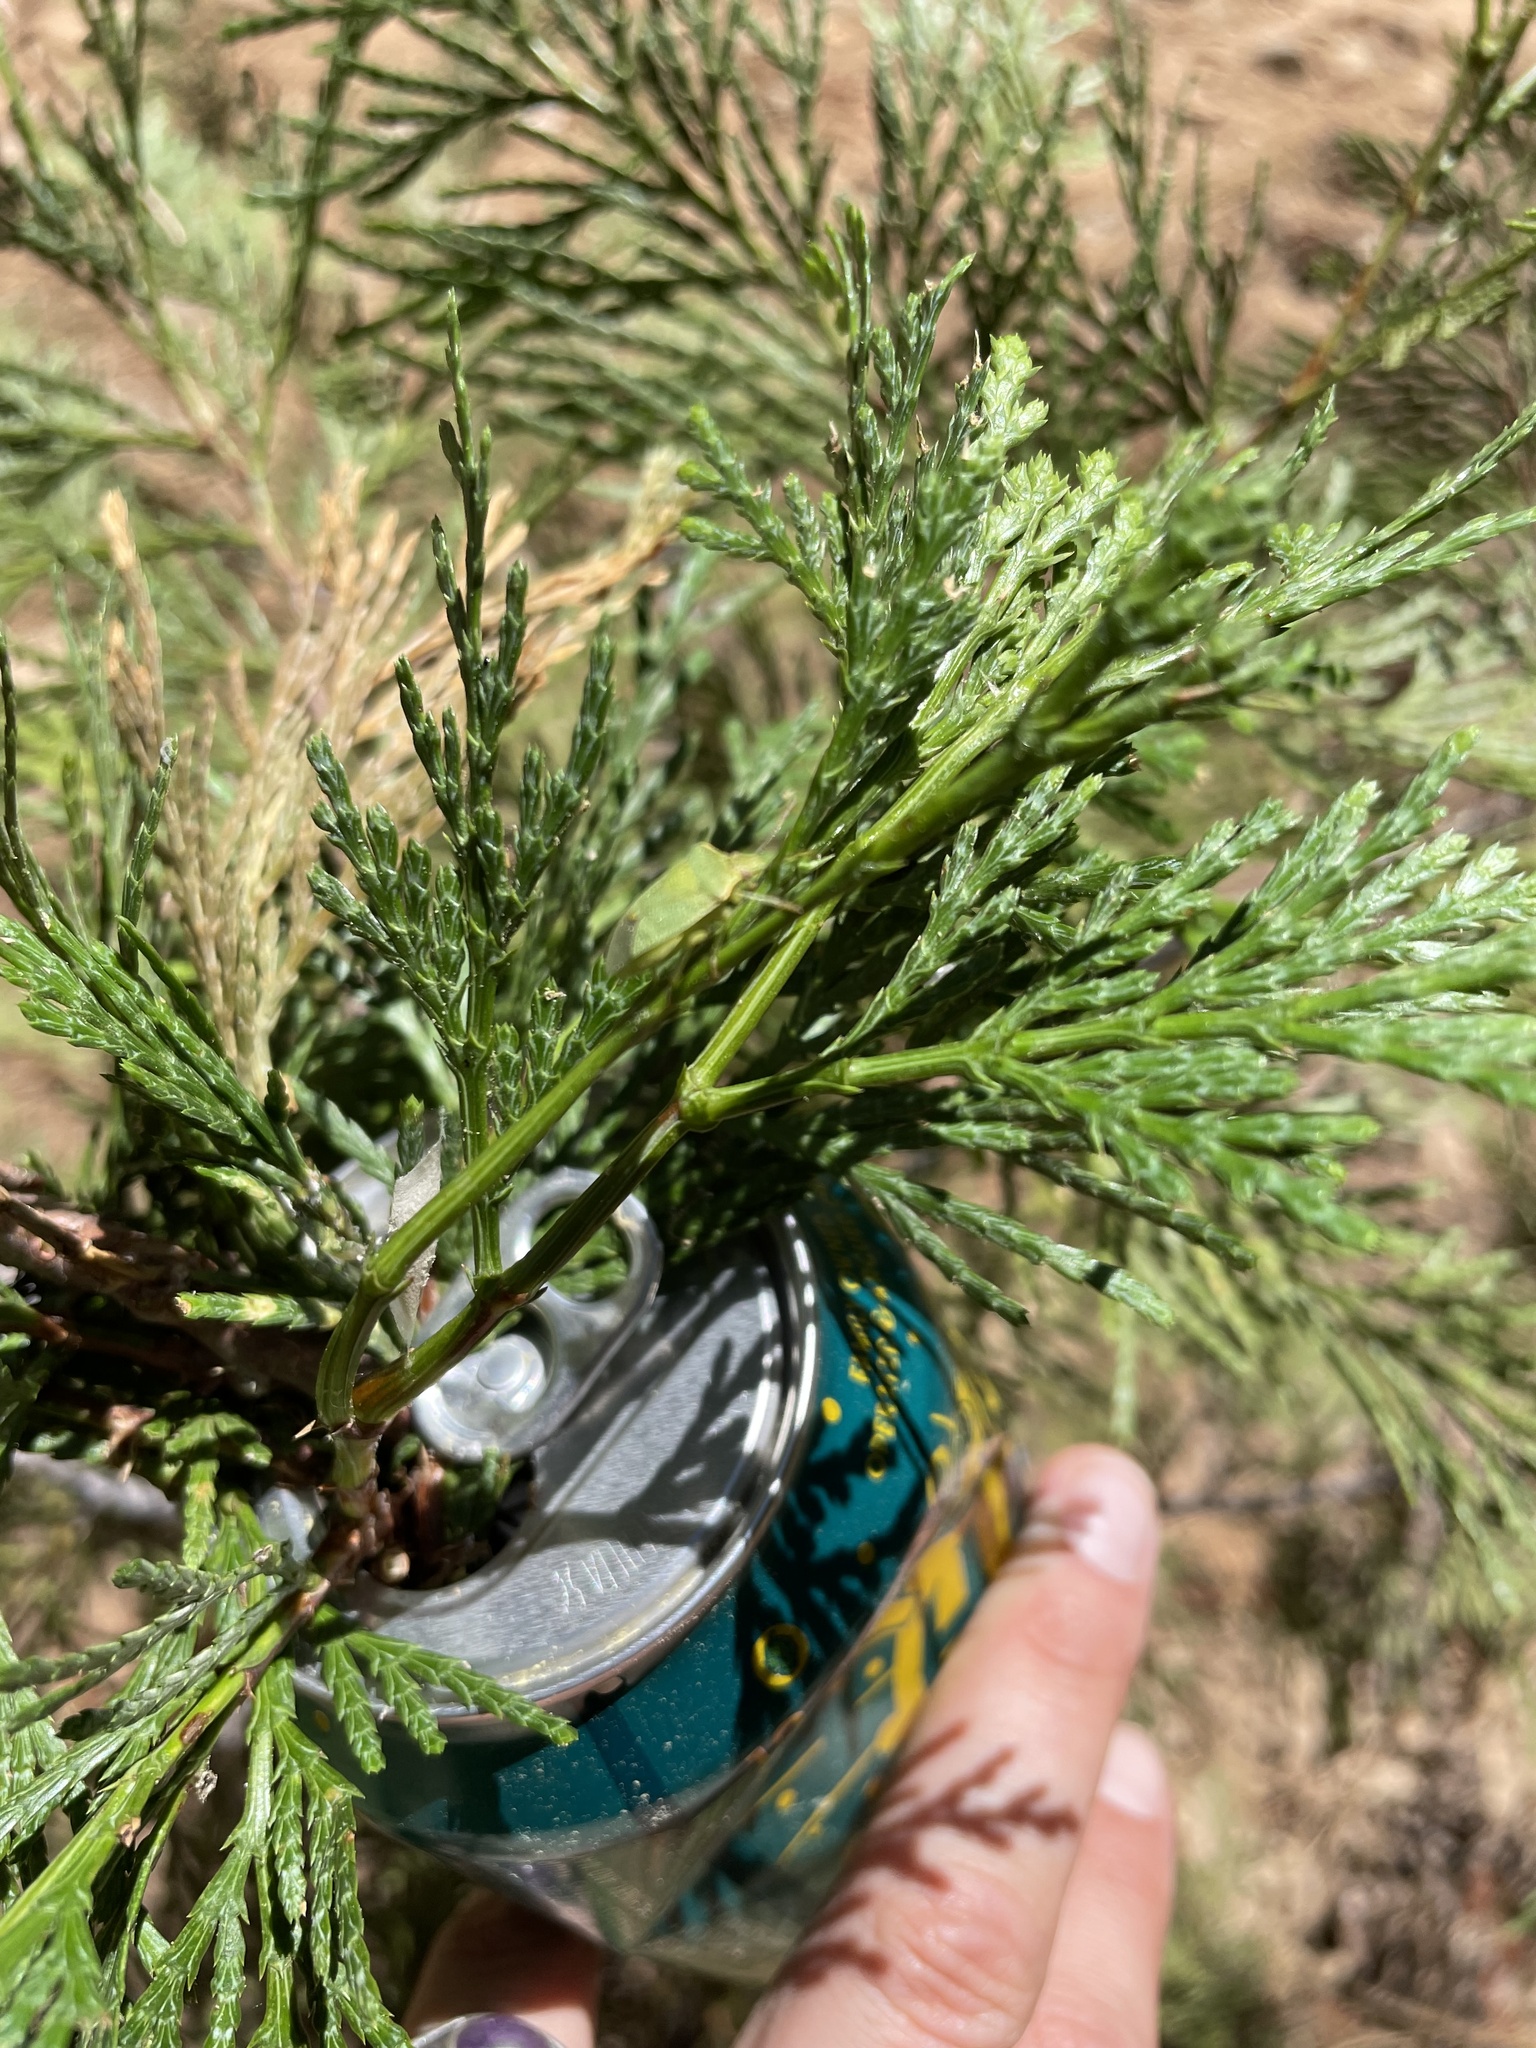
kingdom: Plantae
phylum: Tracheophyta
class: Pinopsida
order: Pinales
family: Cupressaceae
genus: Calocedrus
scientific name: Calocedrus decurrens
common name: Californian incense-cedar
